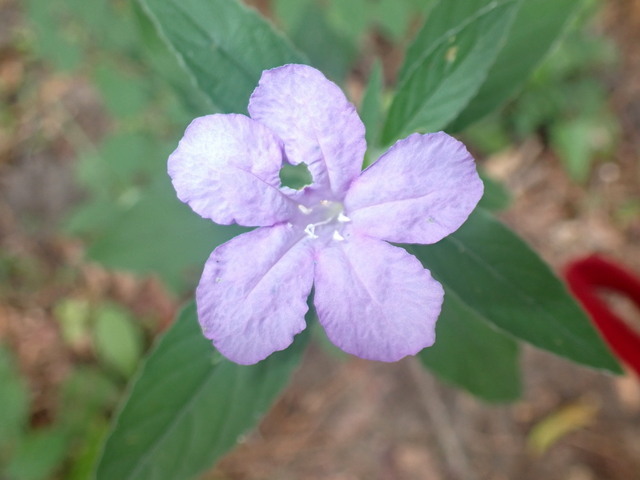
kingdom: Plantae
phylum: Tracheophyta
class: Magnoliopsida
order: Lamiales
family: Acanthaceae
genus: Ruellia
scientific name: Ruellia caroliniensis
